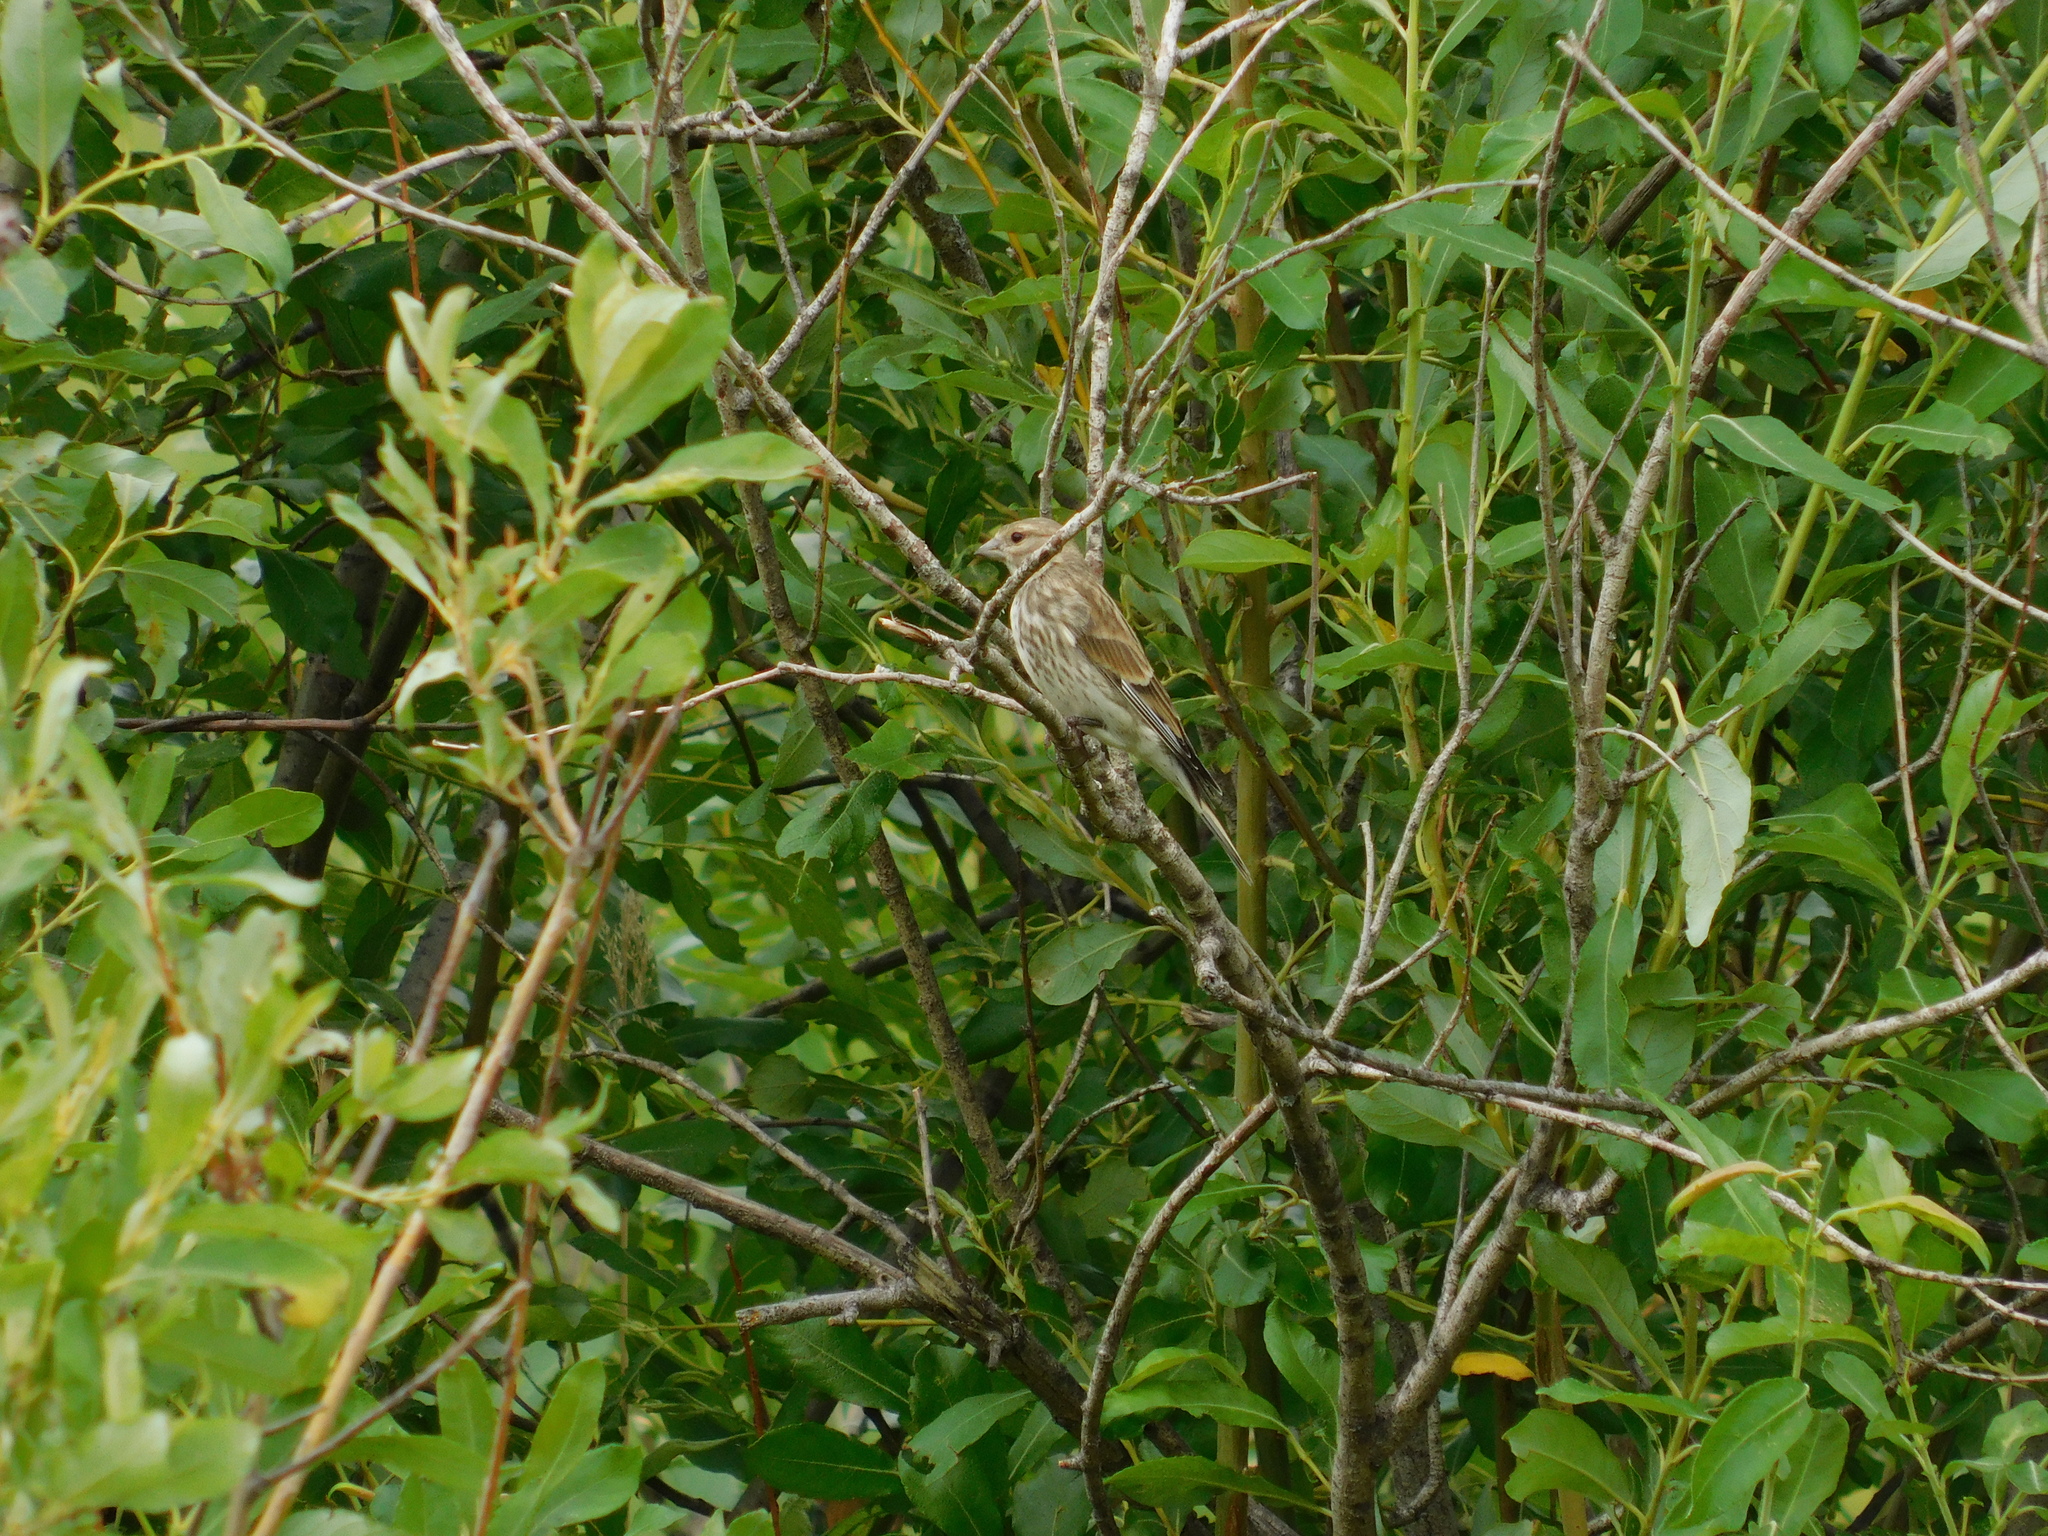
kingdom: Animalia
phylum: Chordata
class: Aves
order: Passeriformes
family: Fringillidae
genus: Linaria
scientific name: Linaria cannabina
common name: Common linnet
